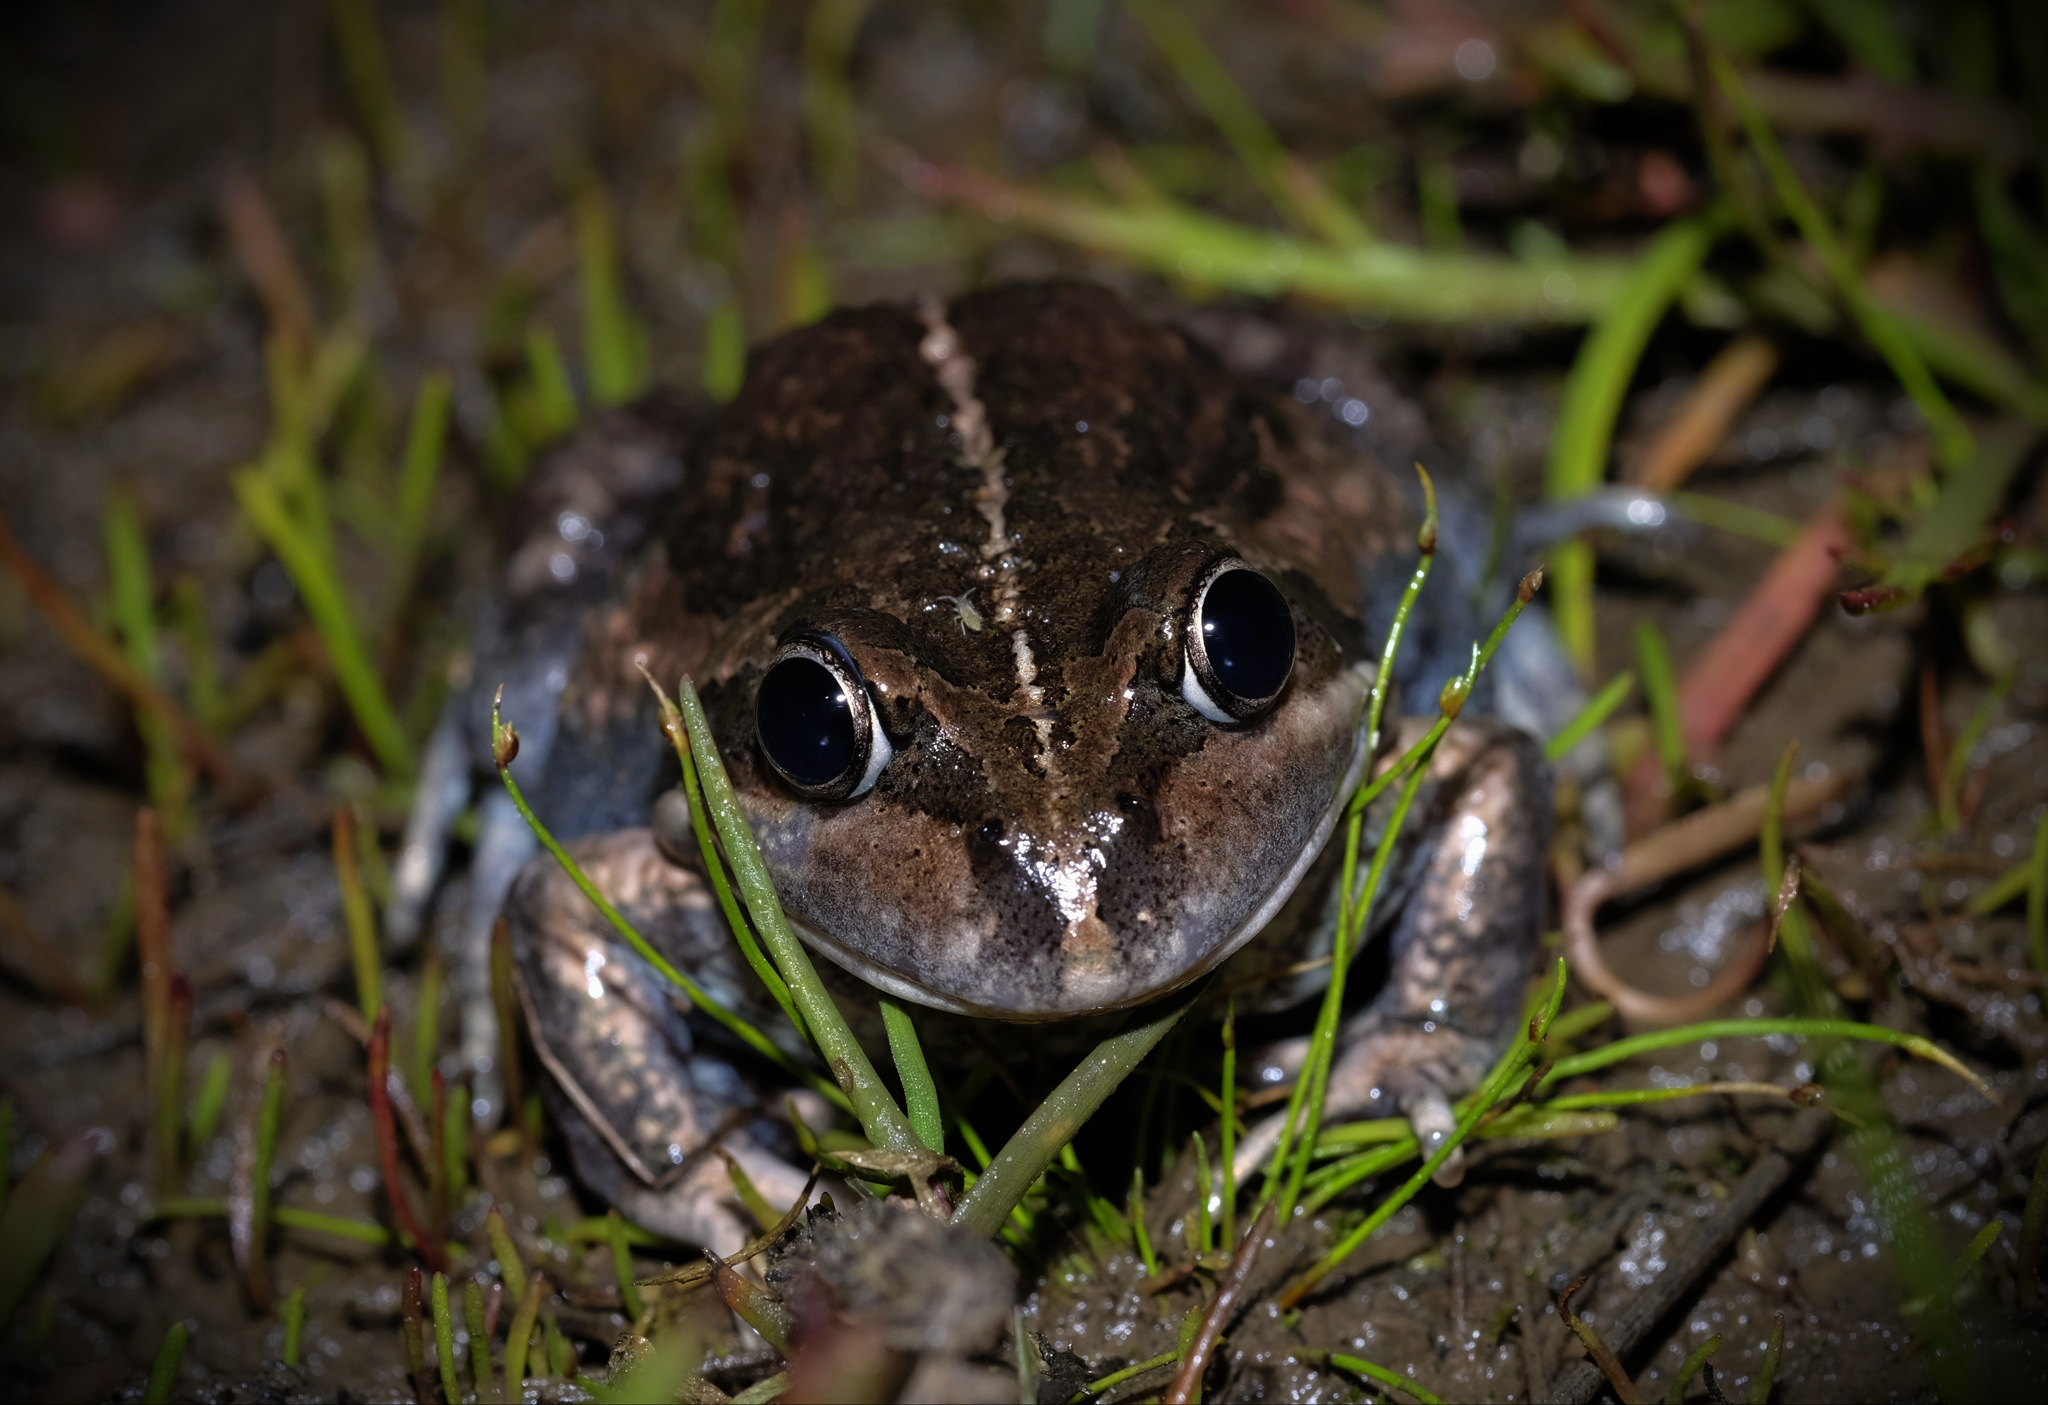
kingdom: Animalia
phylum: Chordata
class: Amphibia
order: Anura
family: Limnodynastidae
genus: Limnodynastes
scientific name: Limnodynastes dumerilii
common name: Banjo frog
